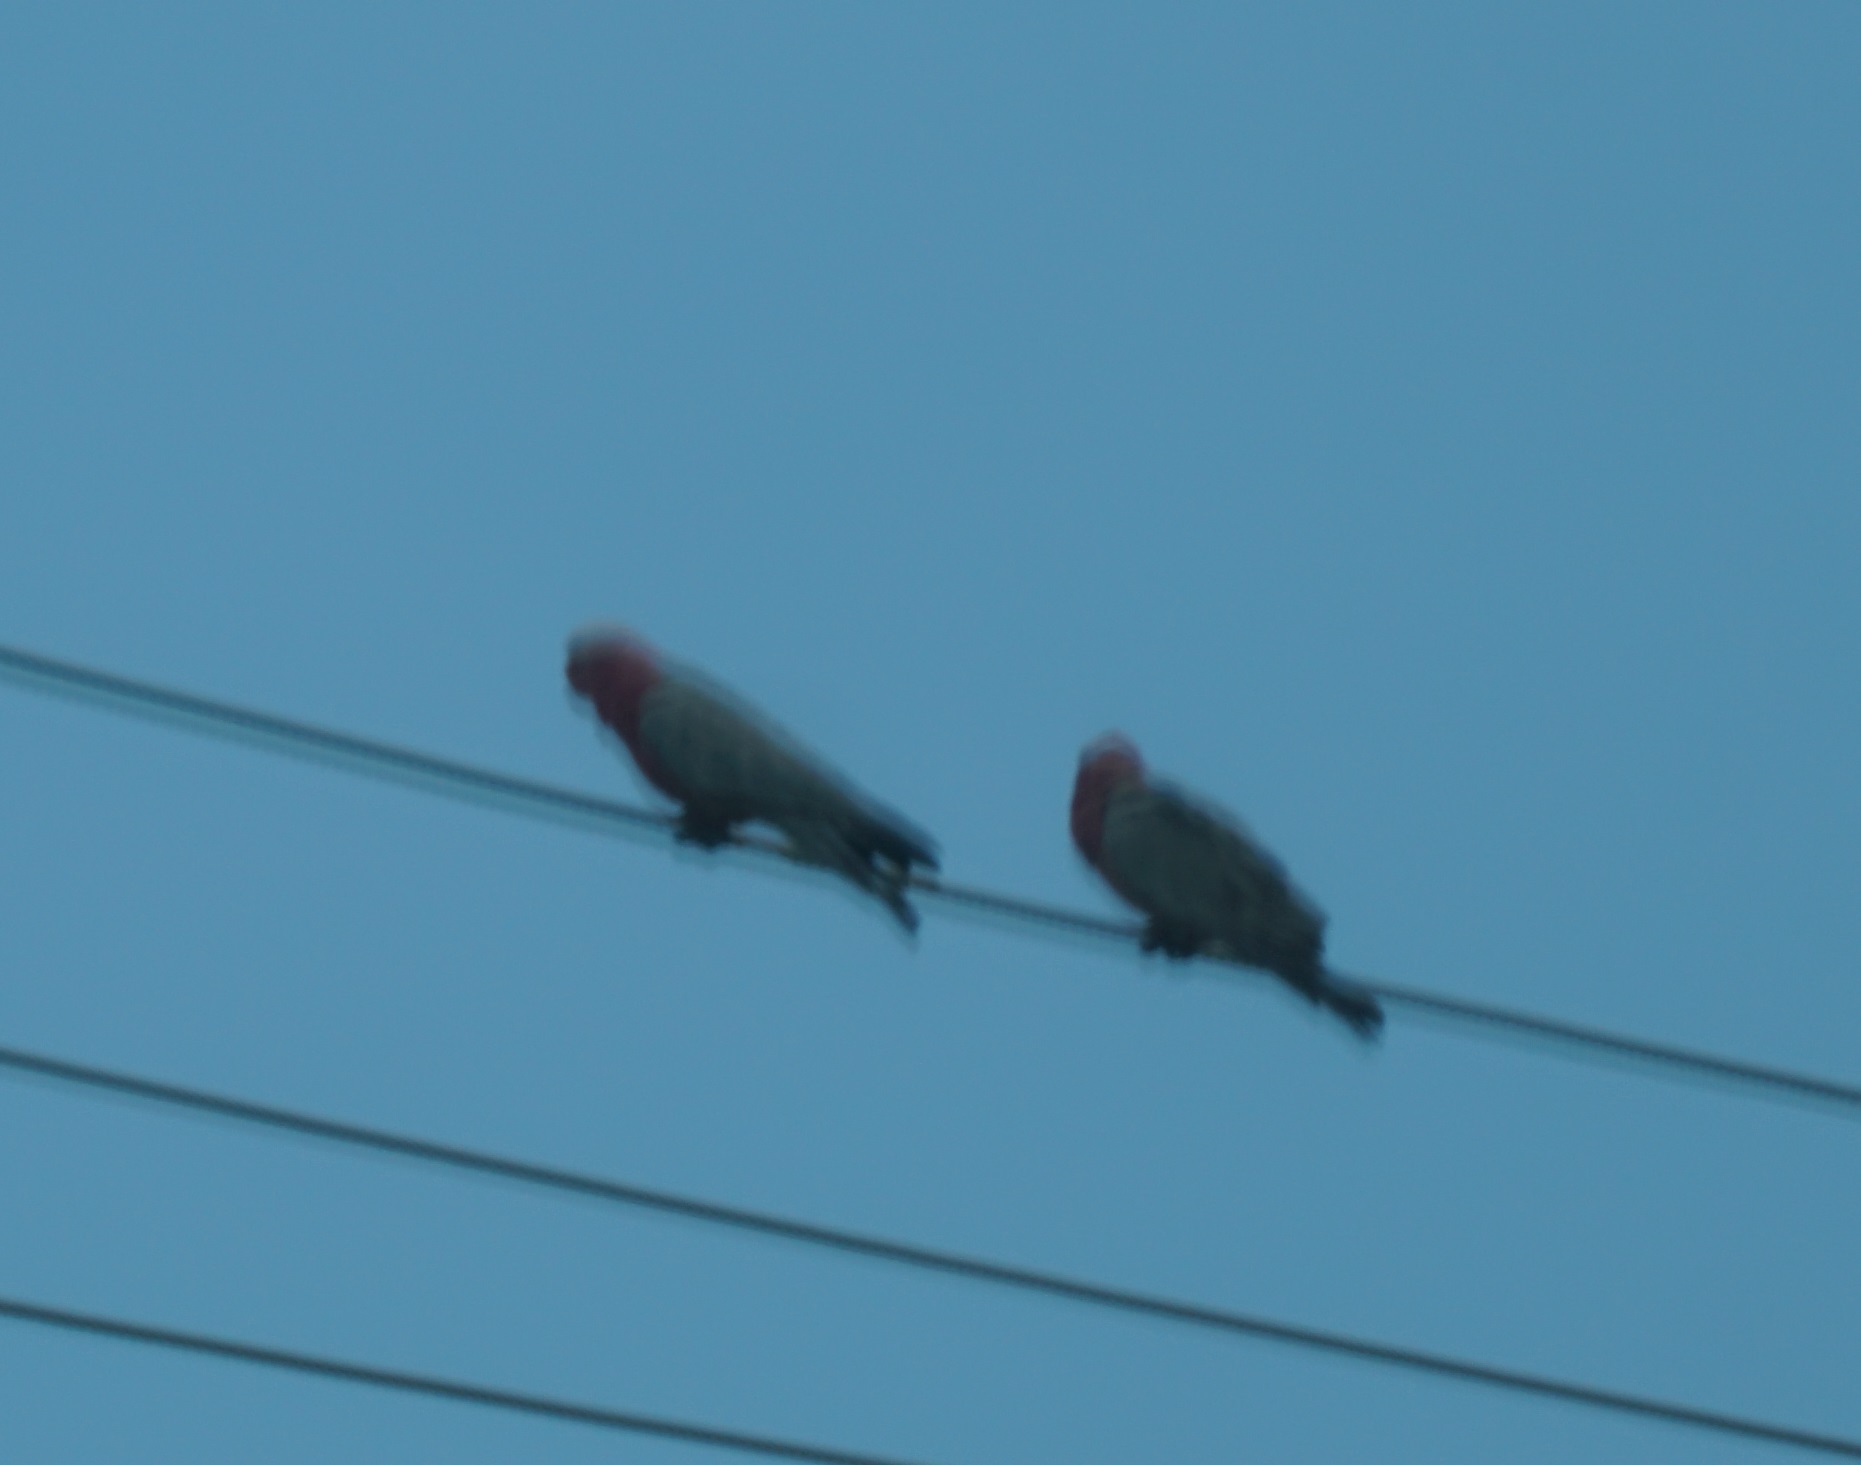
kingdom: Animalia
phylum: Chordata
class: Aves
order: Psittaciformes
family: Psittacidae
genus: Eolophus
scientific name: Eolophus roseicapilla
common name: Galah
